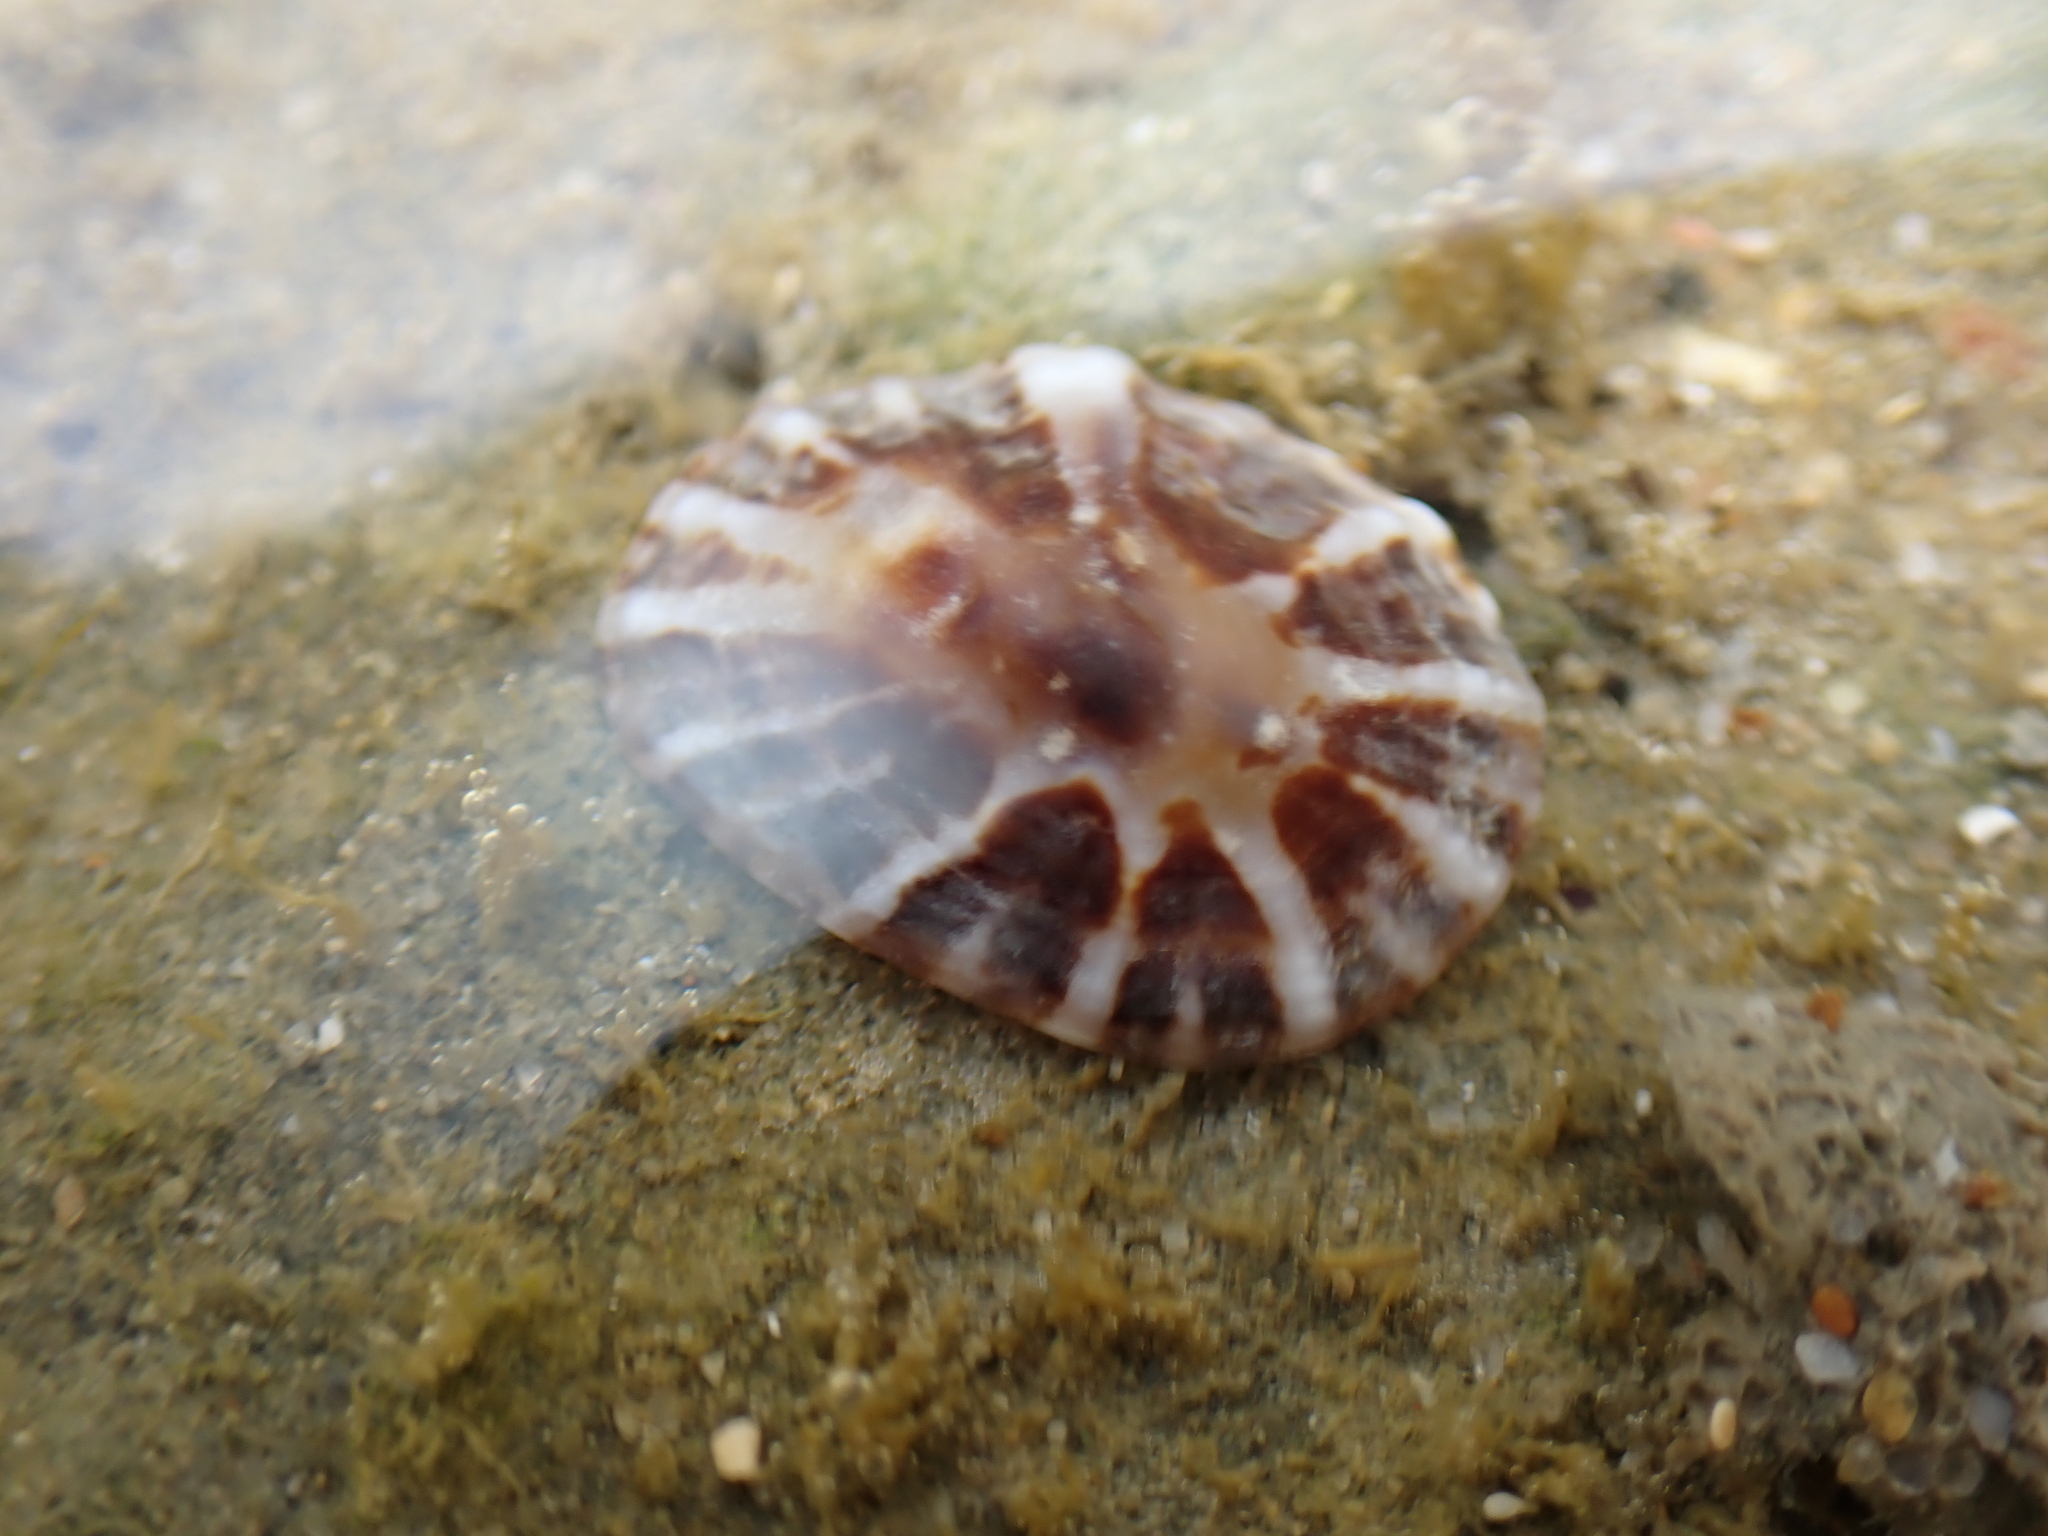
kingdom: Animalia
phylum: Mollusca
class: Gastropoda
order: Siphonariida
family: Siphonariidae
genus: Siphonaria
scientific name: Siphonaria denticulata
